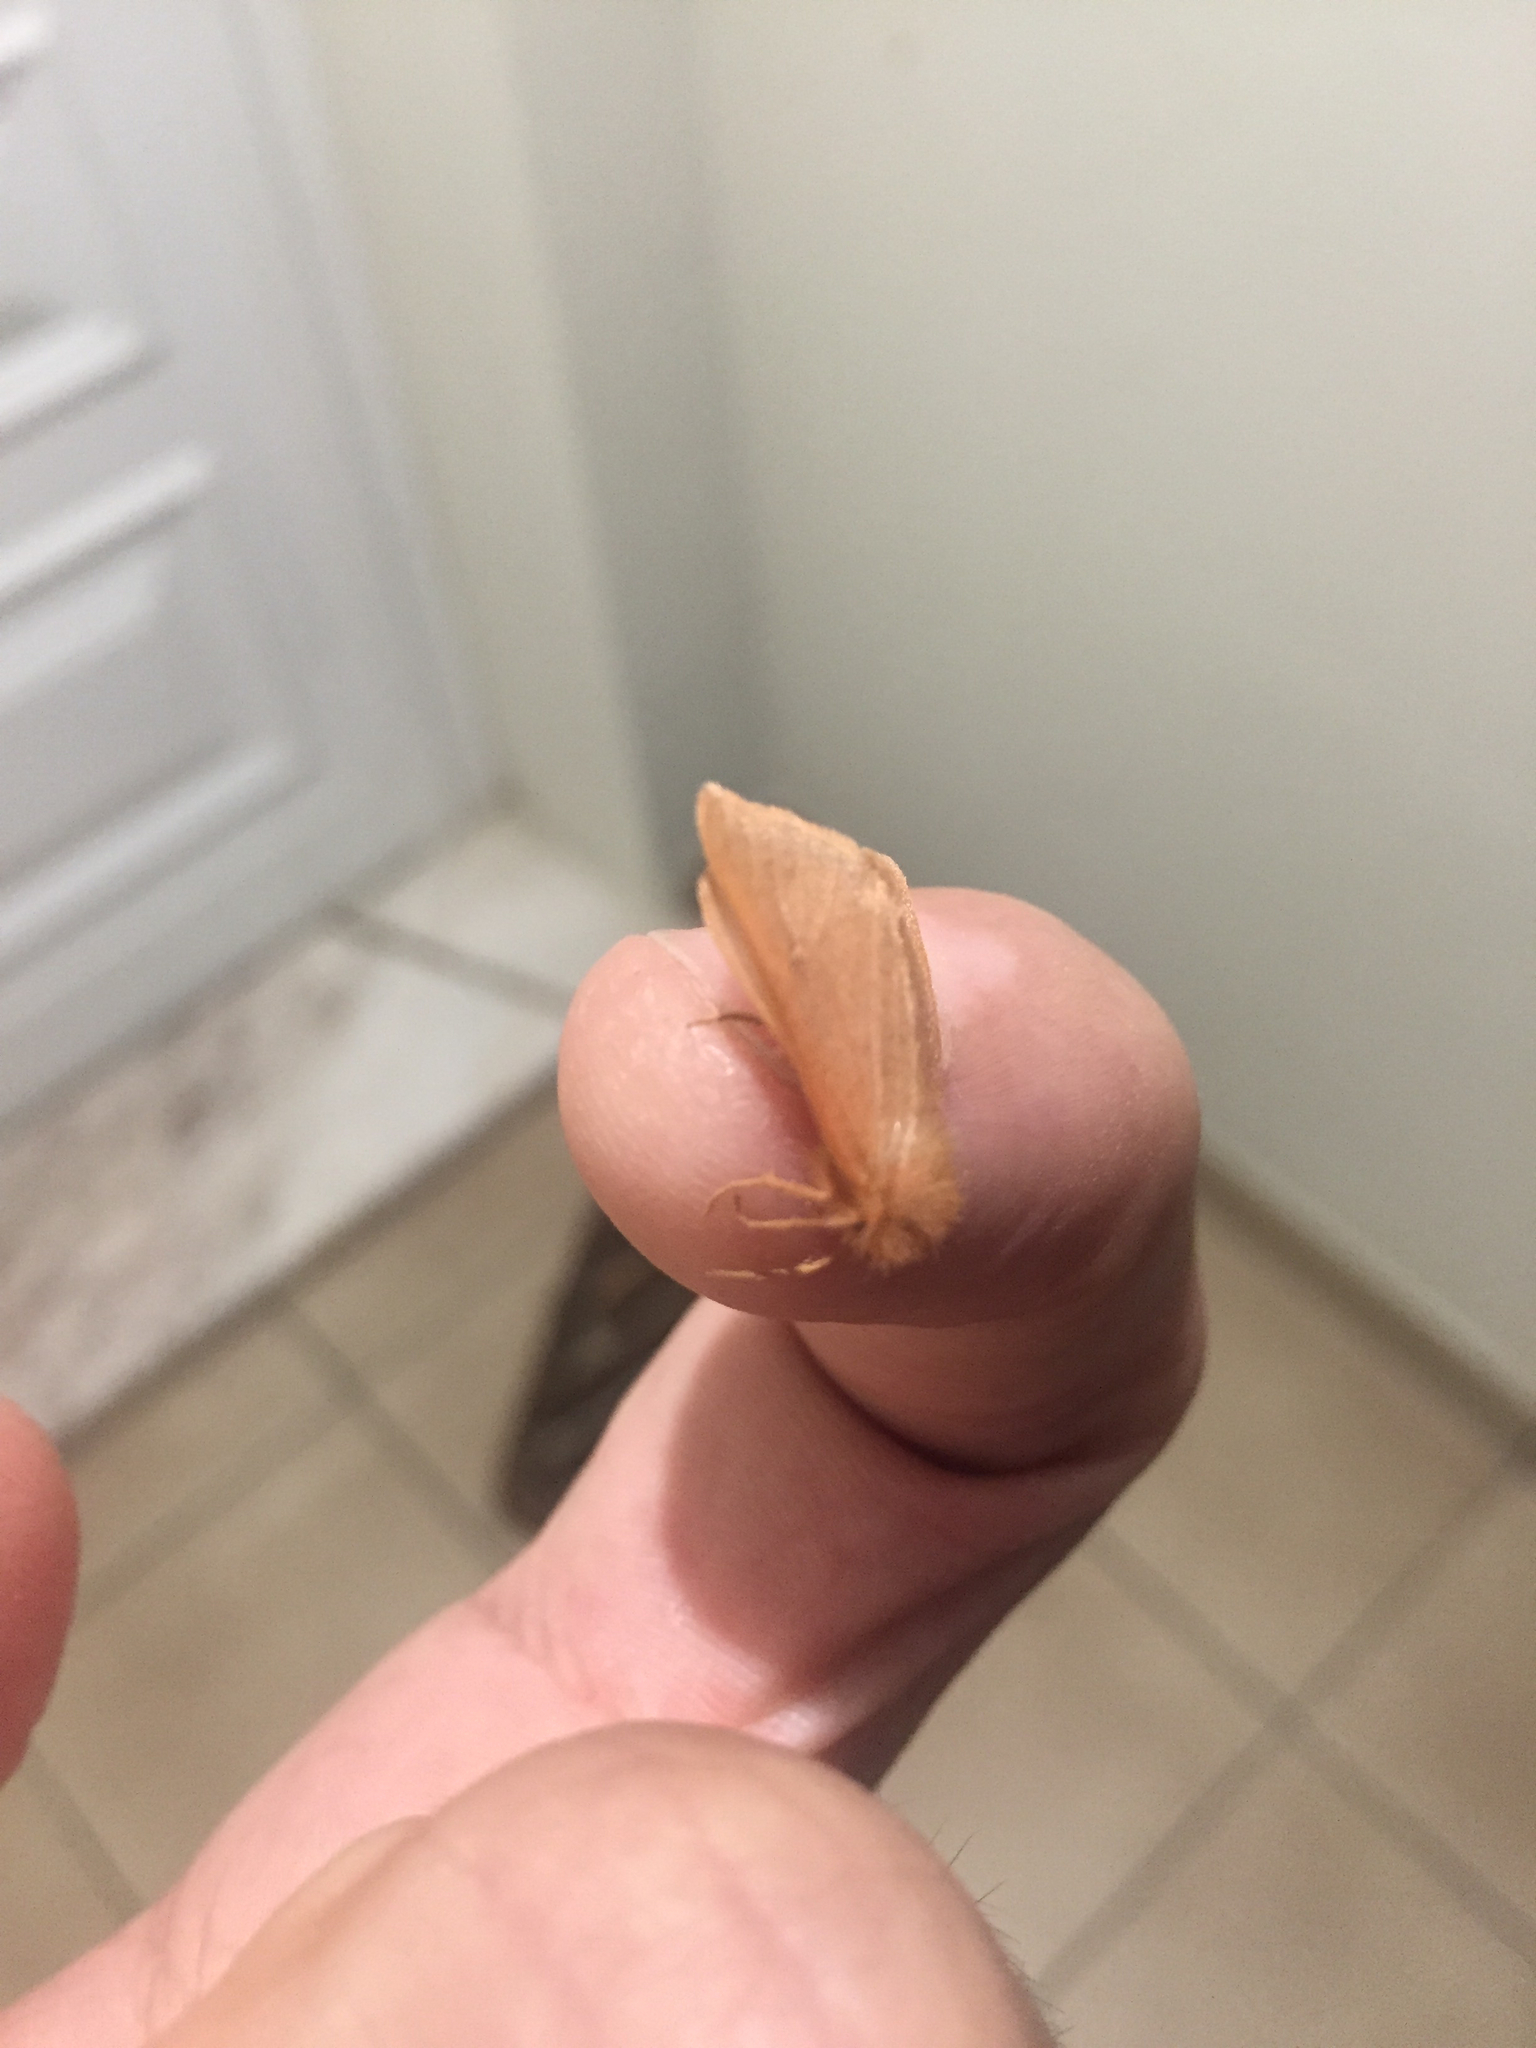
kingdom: Animalia
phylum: Arthropoda
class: Insecta
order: Lepidoptera
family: Erebidae
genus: Ocneria
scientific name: Ocneria rubea
